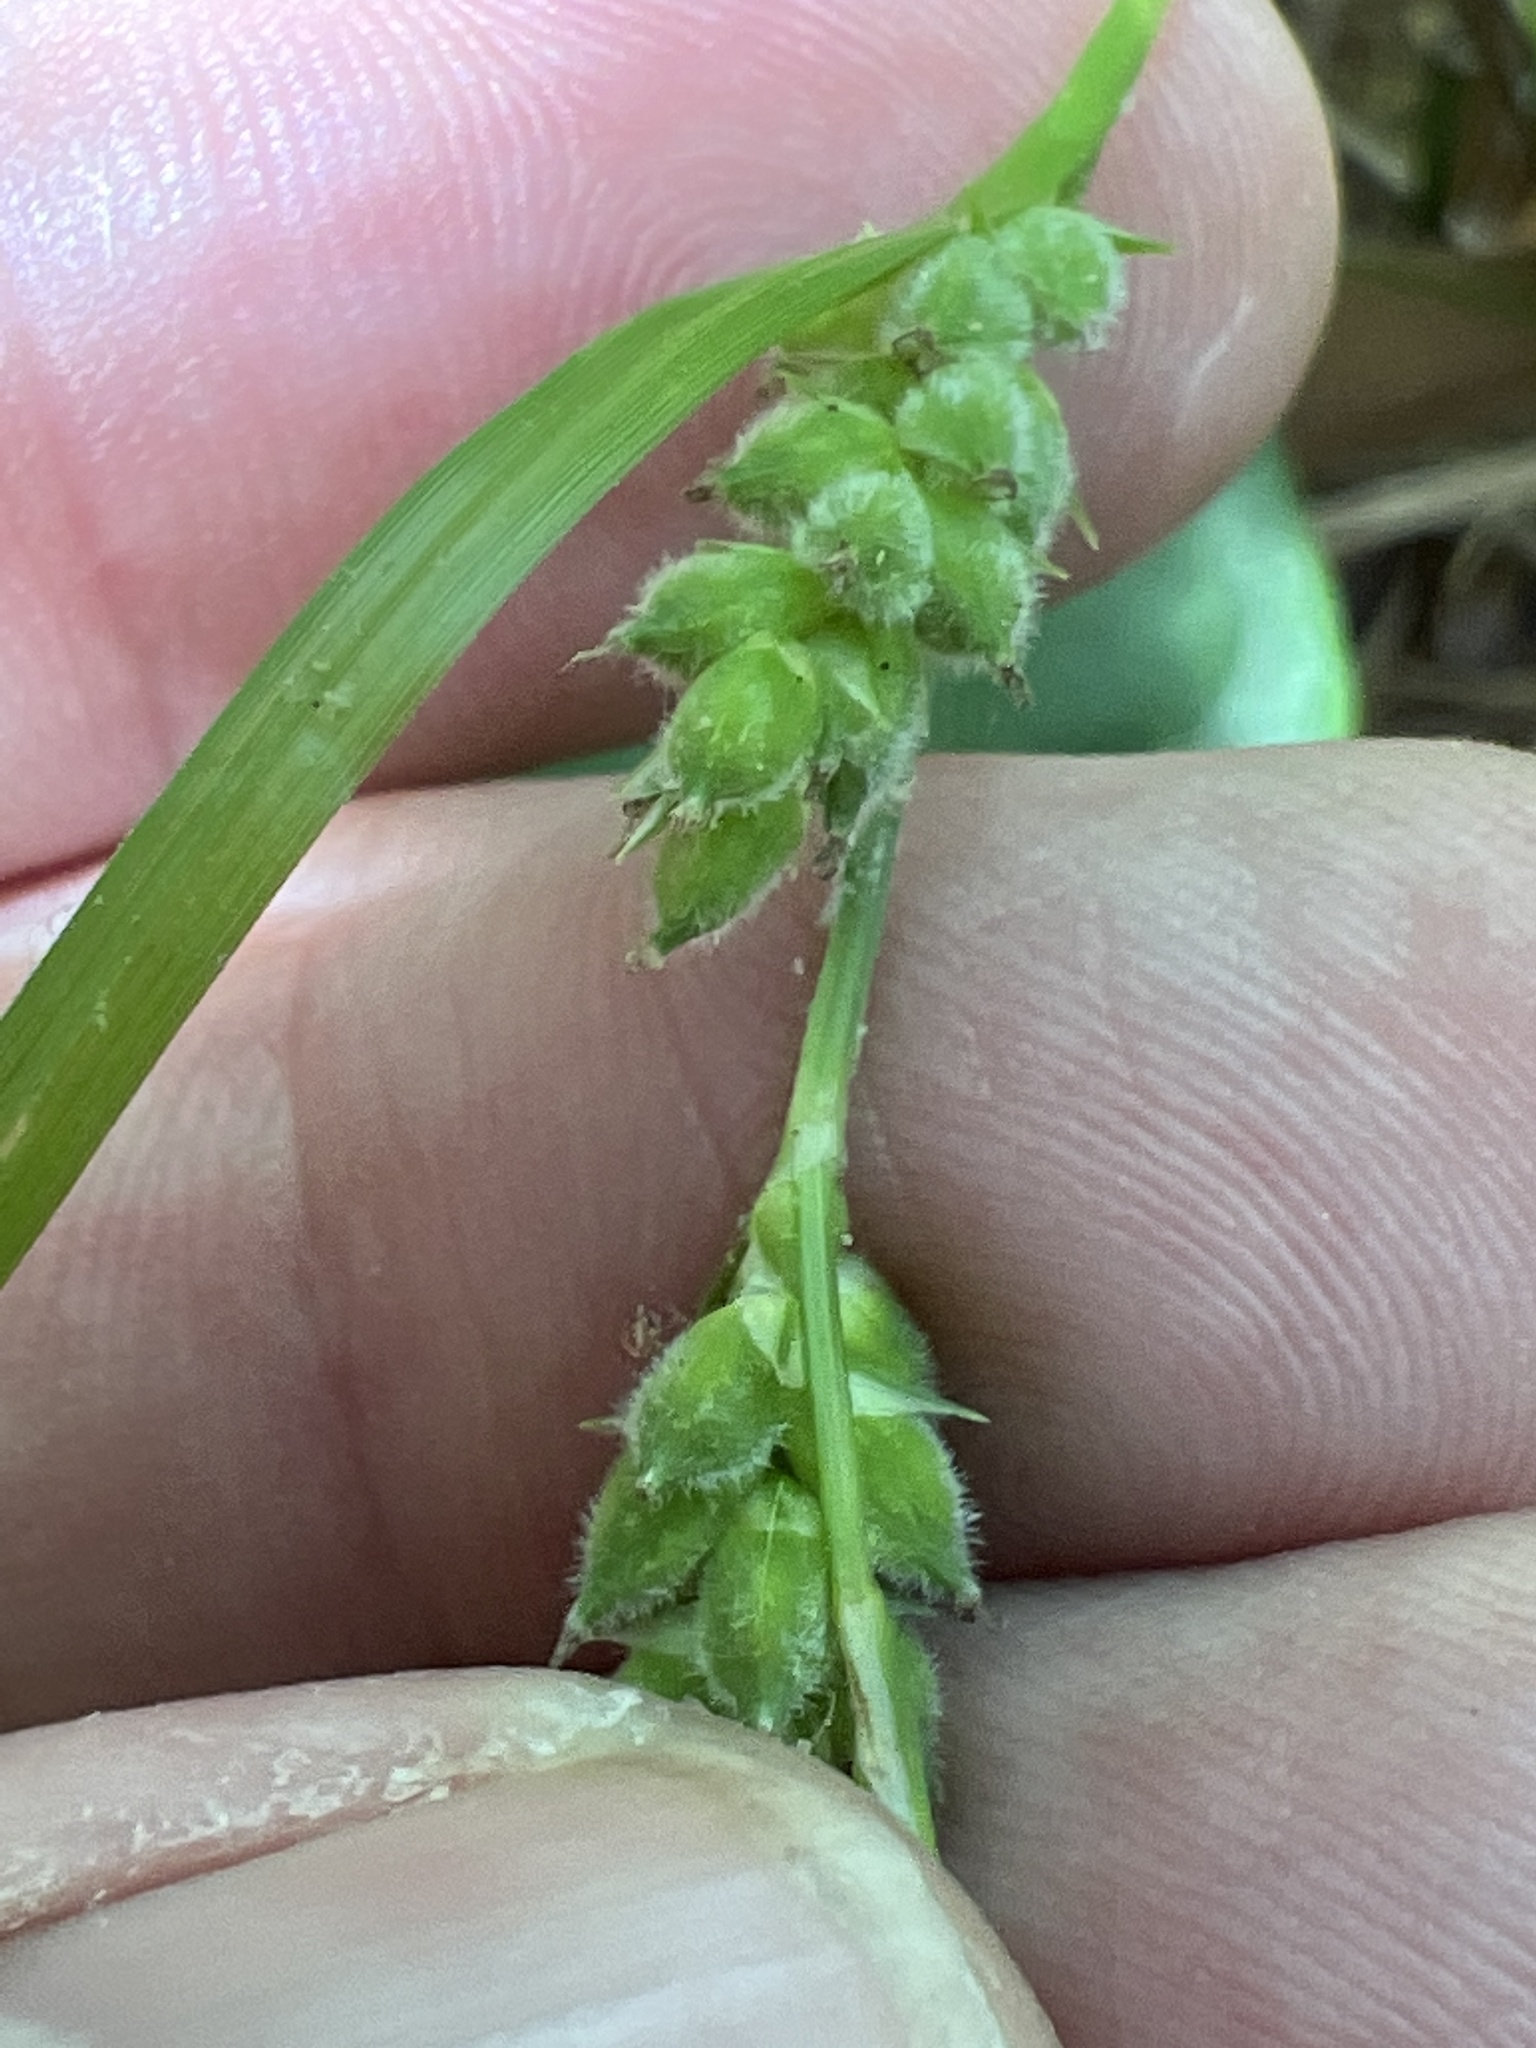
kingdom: Plantae
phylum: Tracheophyta
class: Liliopsida
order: Poales
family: Cyperaceae
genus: Carex
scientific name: Carex dasycarpa
